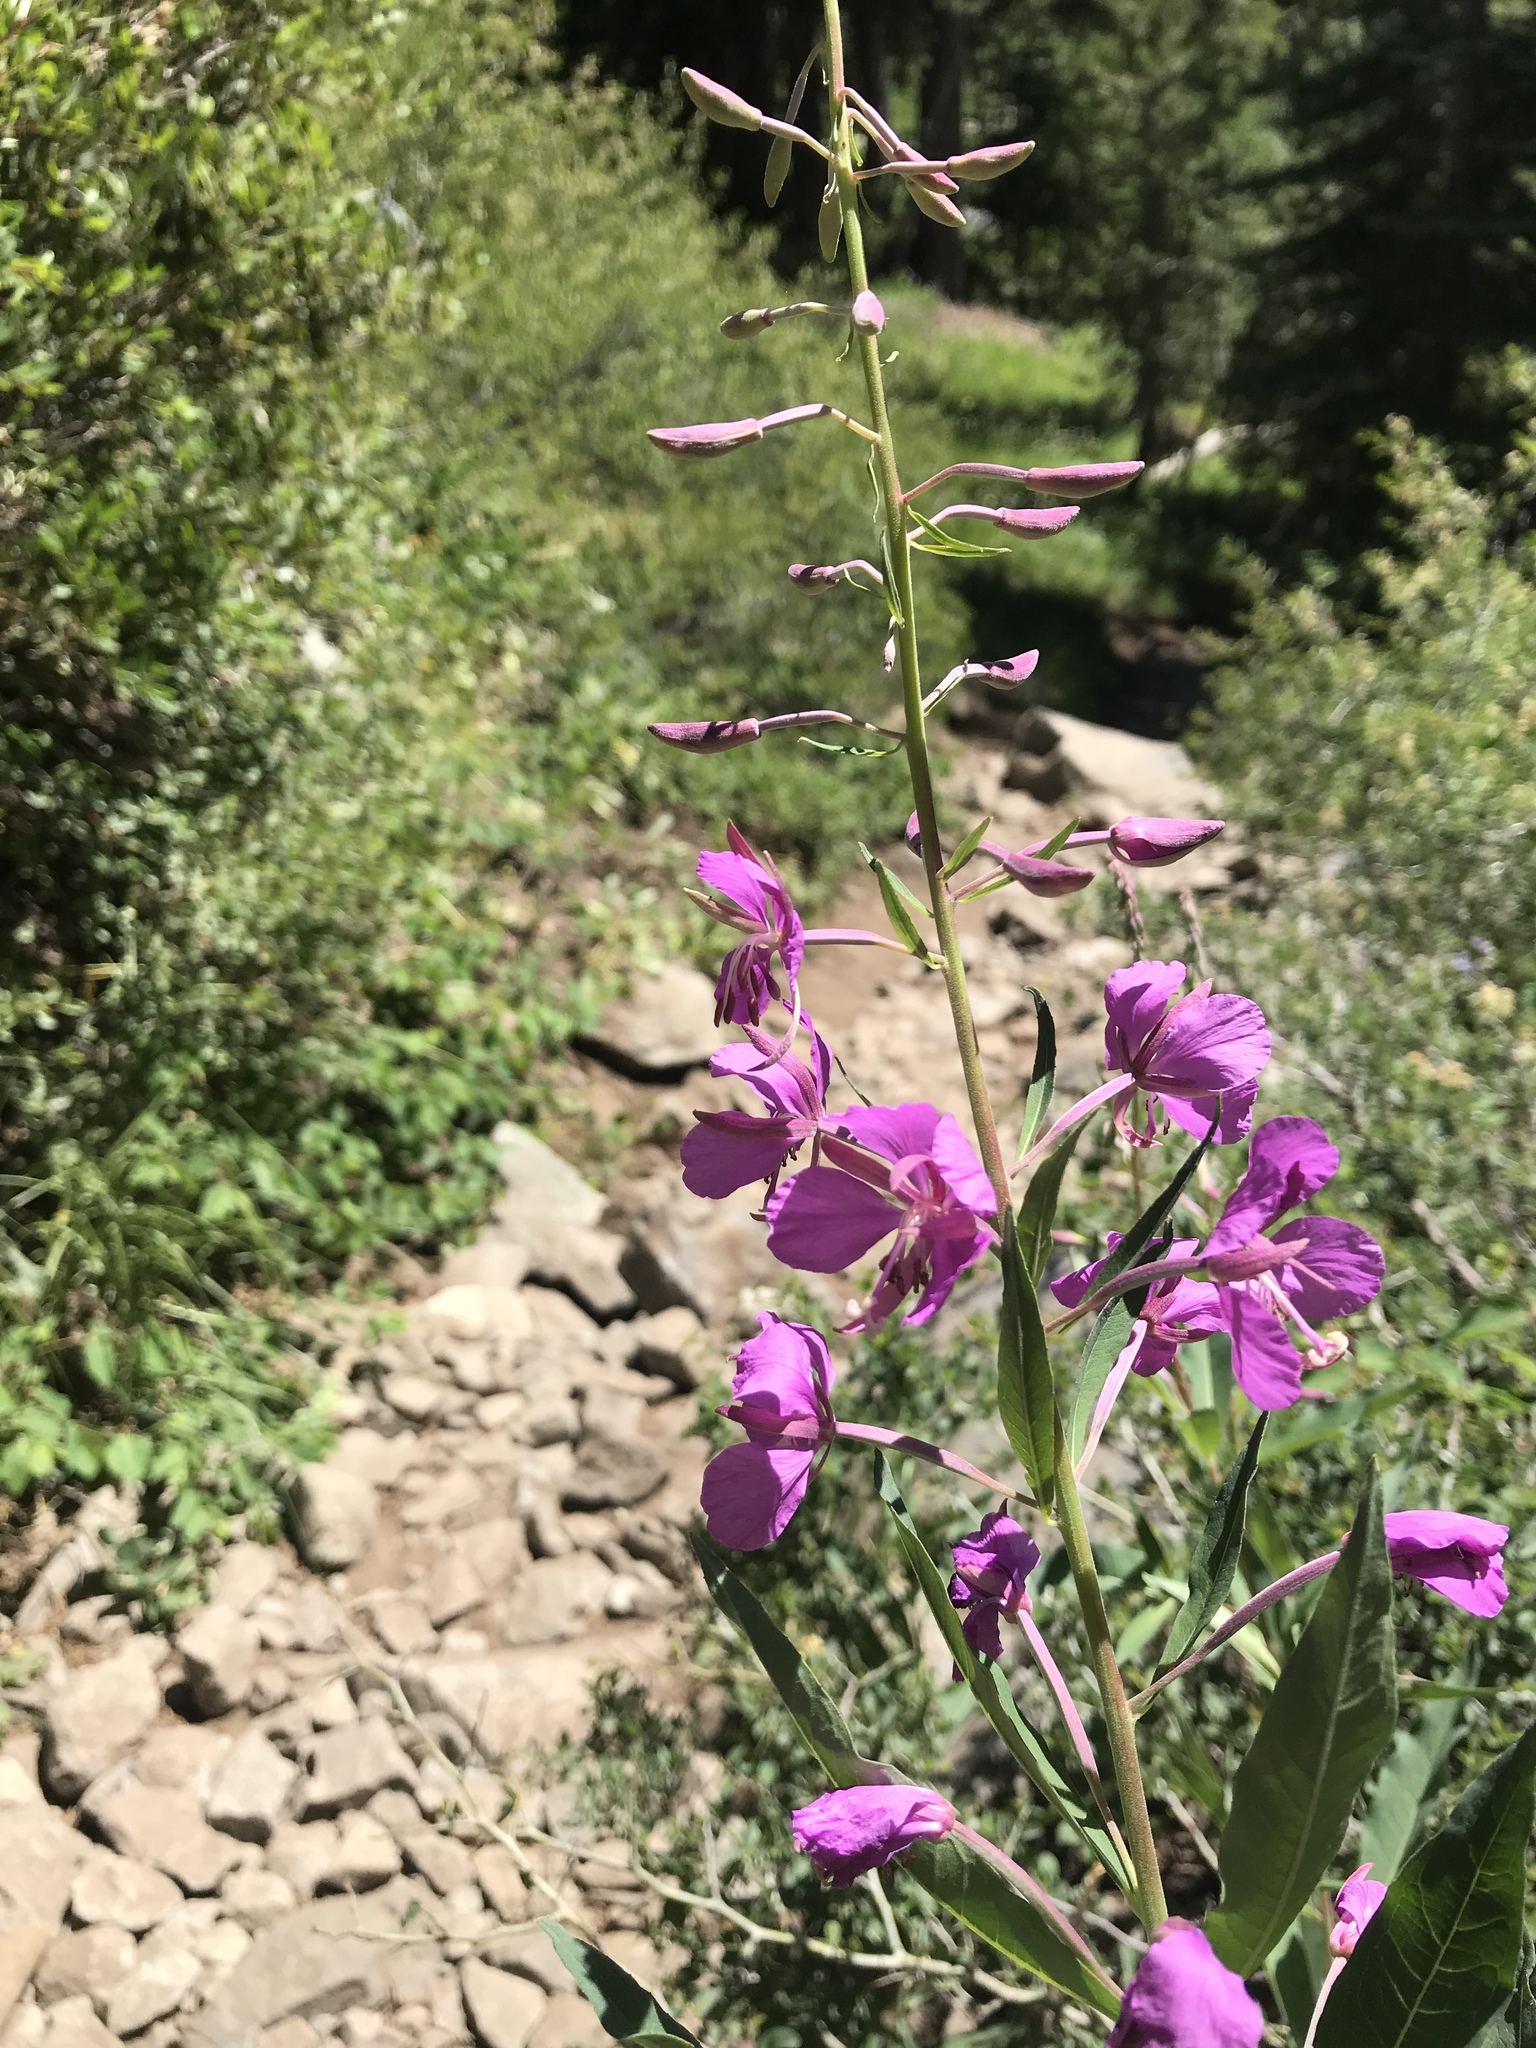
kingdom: Plantae
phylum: Tracheophyta
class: Magnoliopsida
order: Myrtales
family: Onagraceae
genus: Chamaenerion
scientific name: Chamaenerion angustifolium
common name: Fireweed
